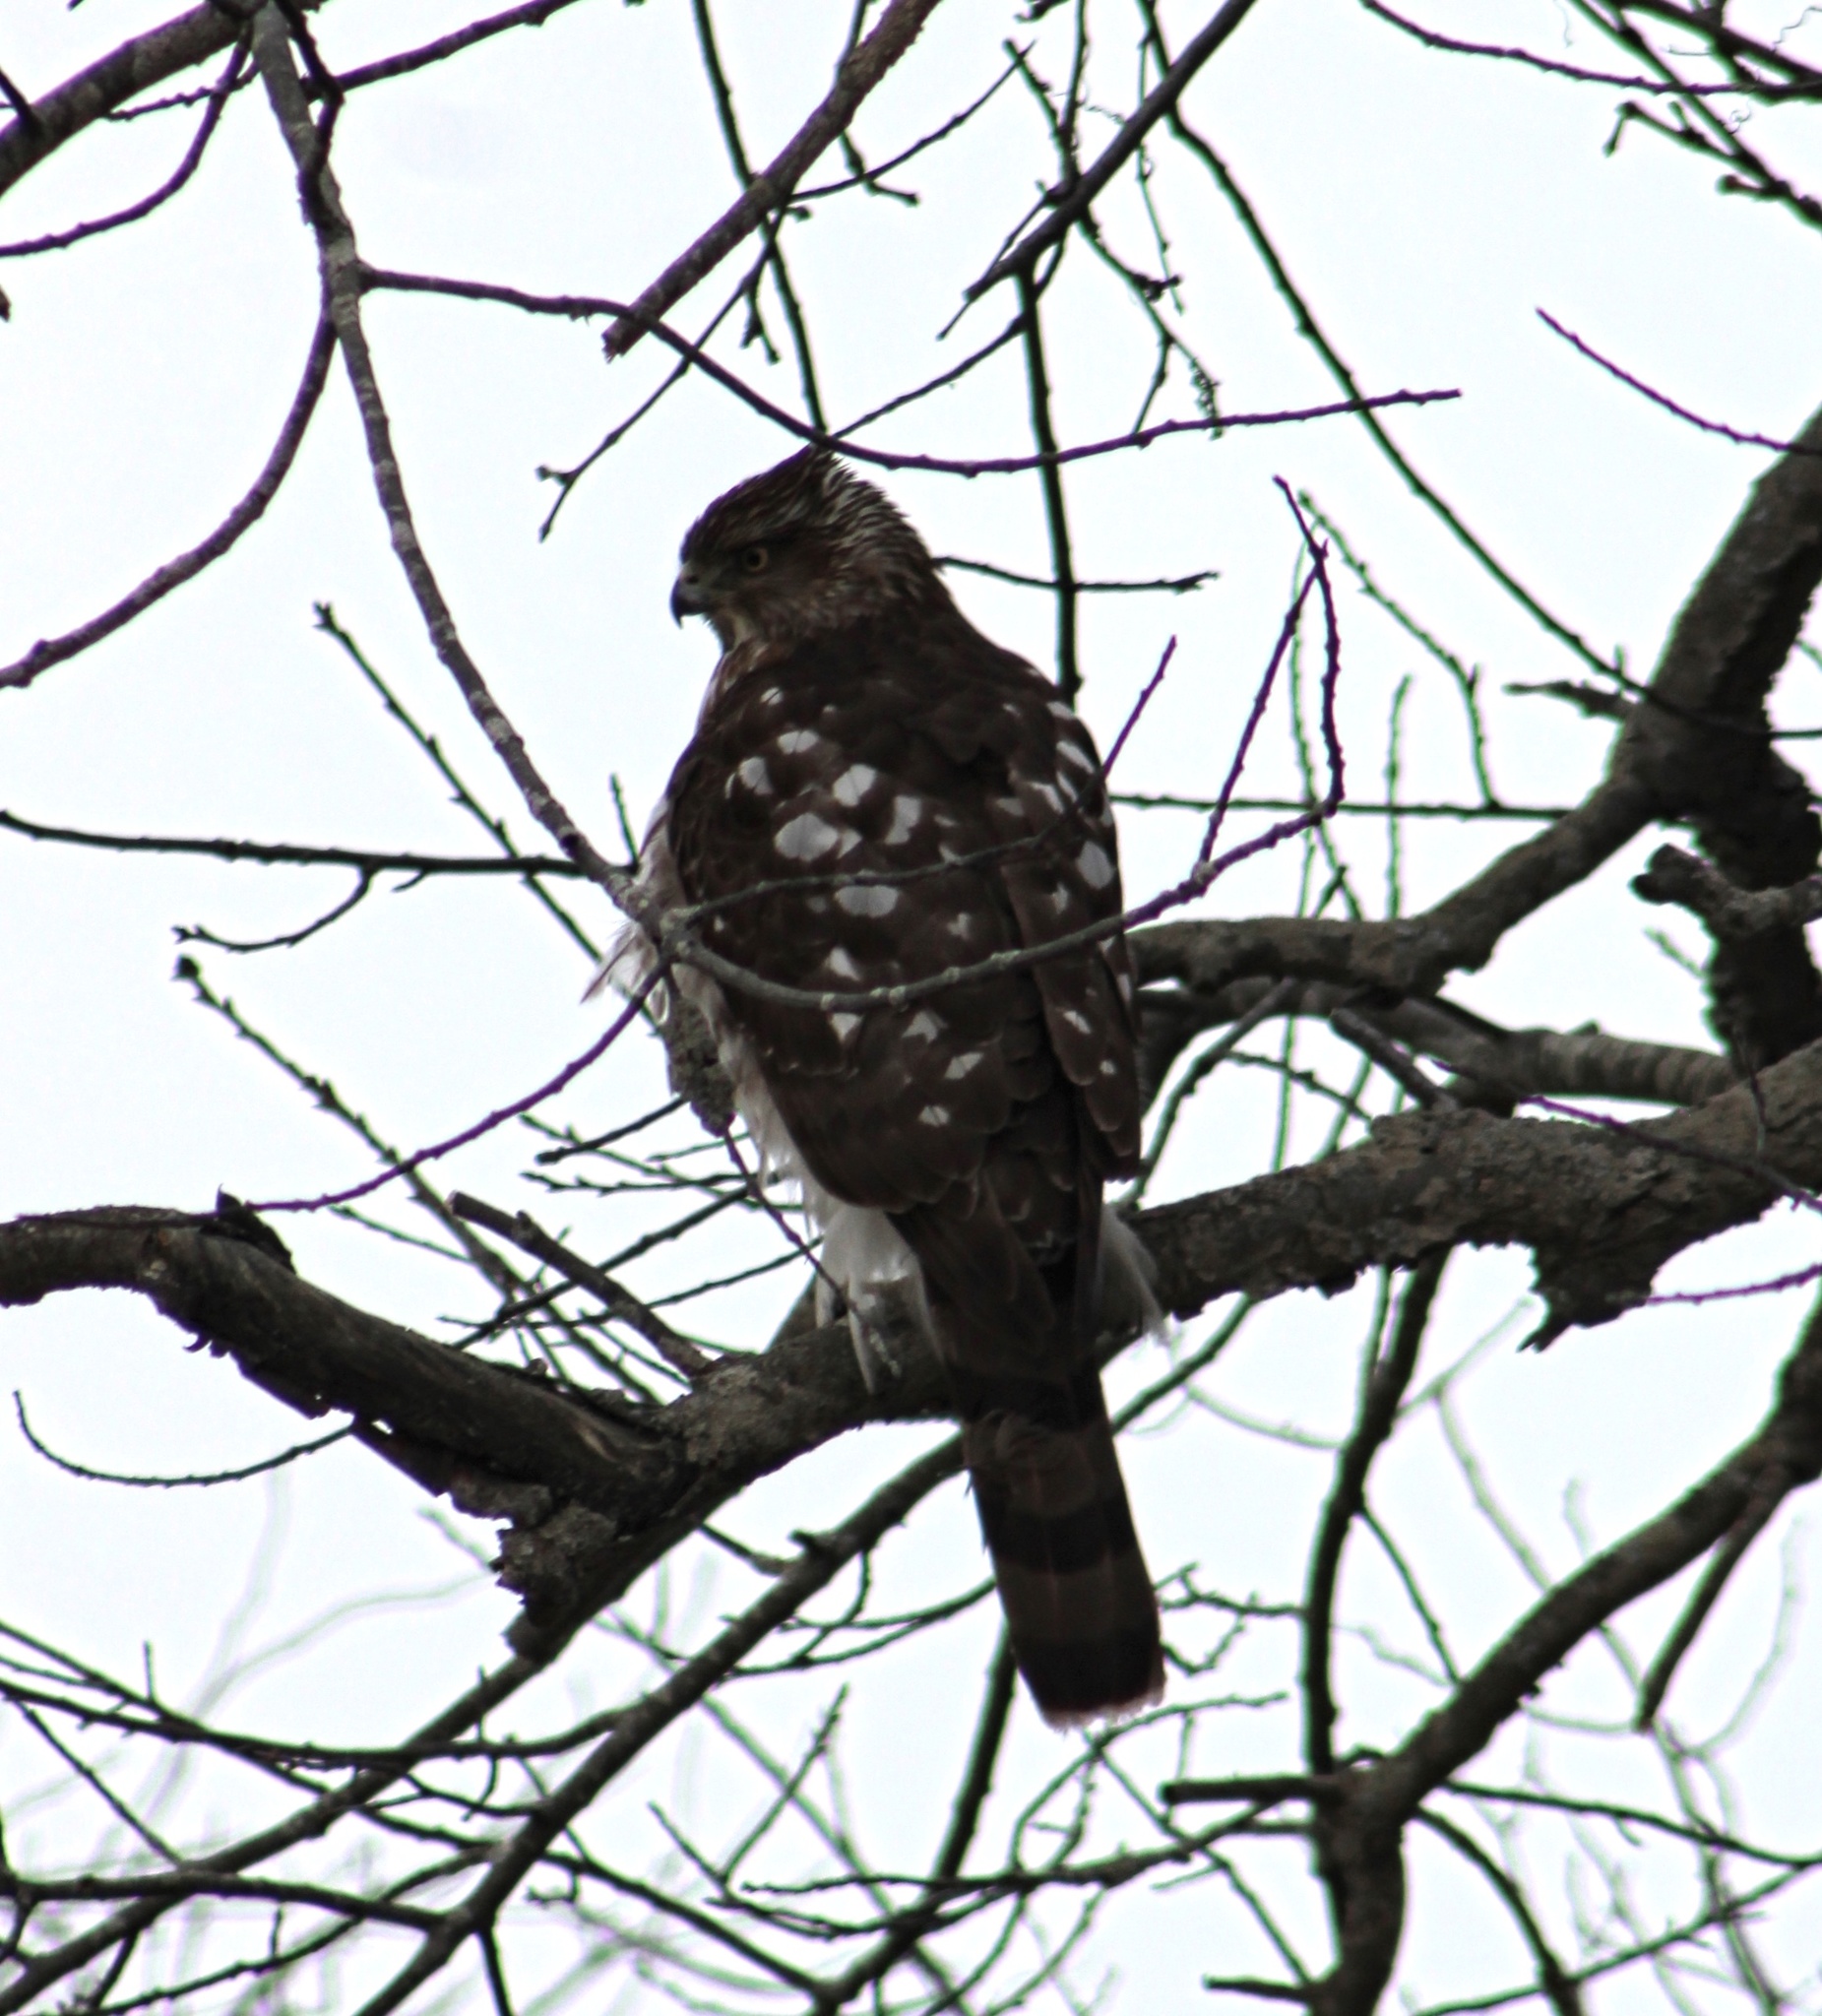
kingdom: Animalia
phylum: Chordata
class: Aves
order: Accipitriformes
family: Accipitridae
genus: Accipiter
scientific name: Accipiter cooperii
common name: Cooper's hawk
